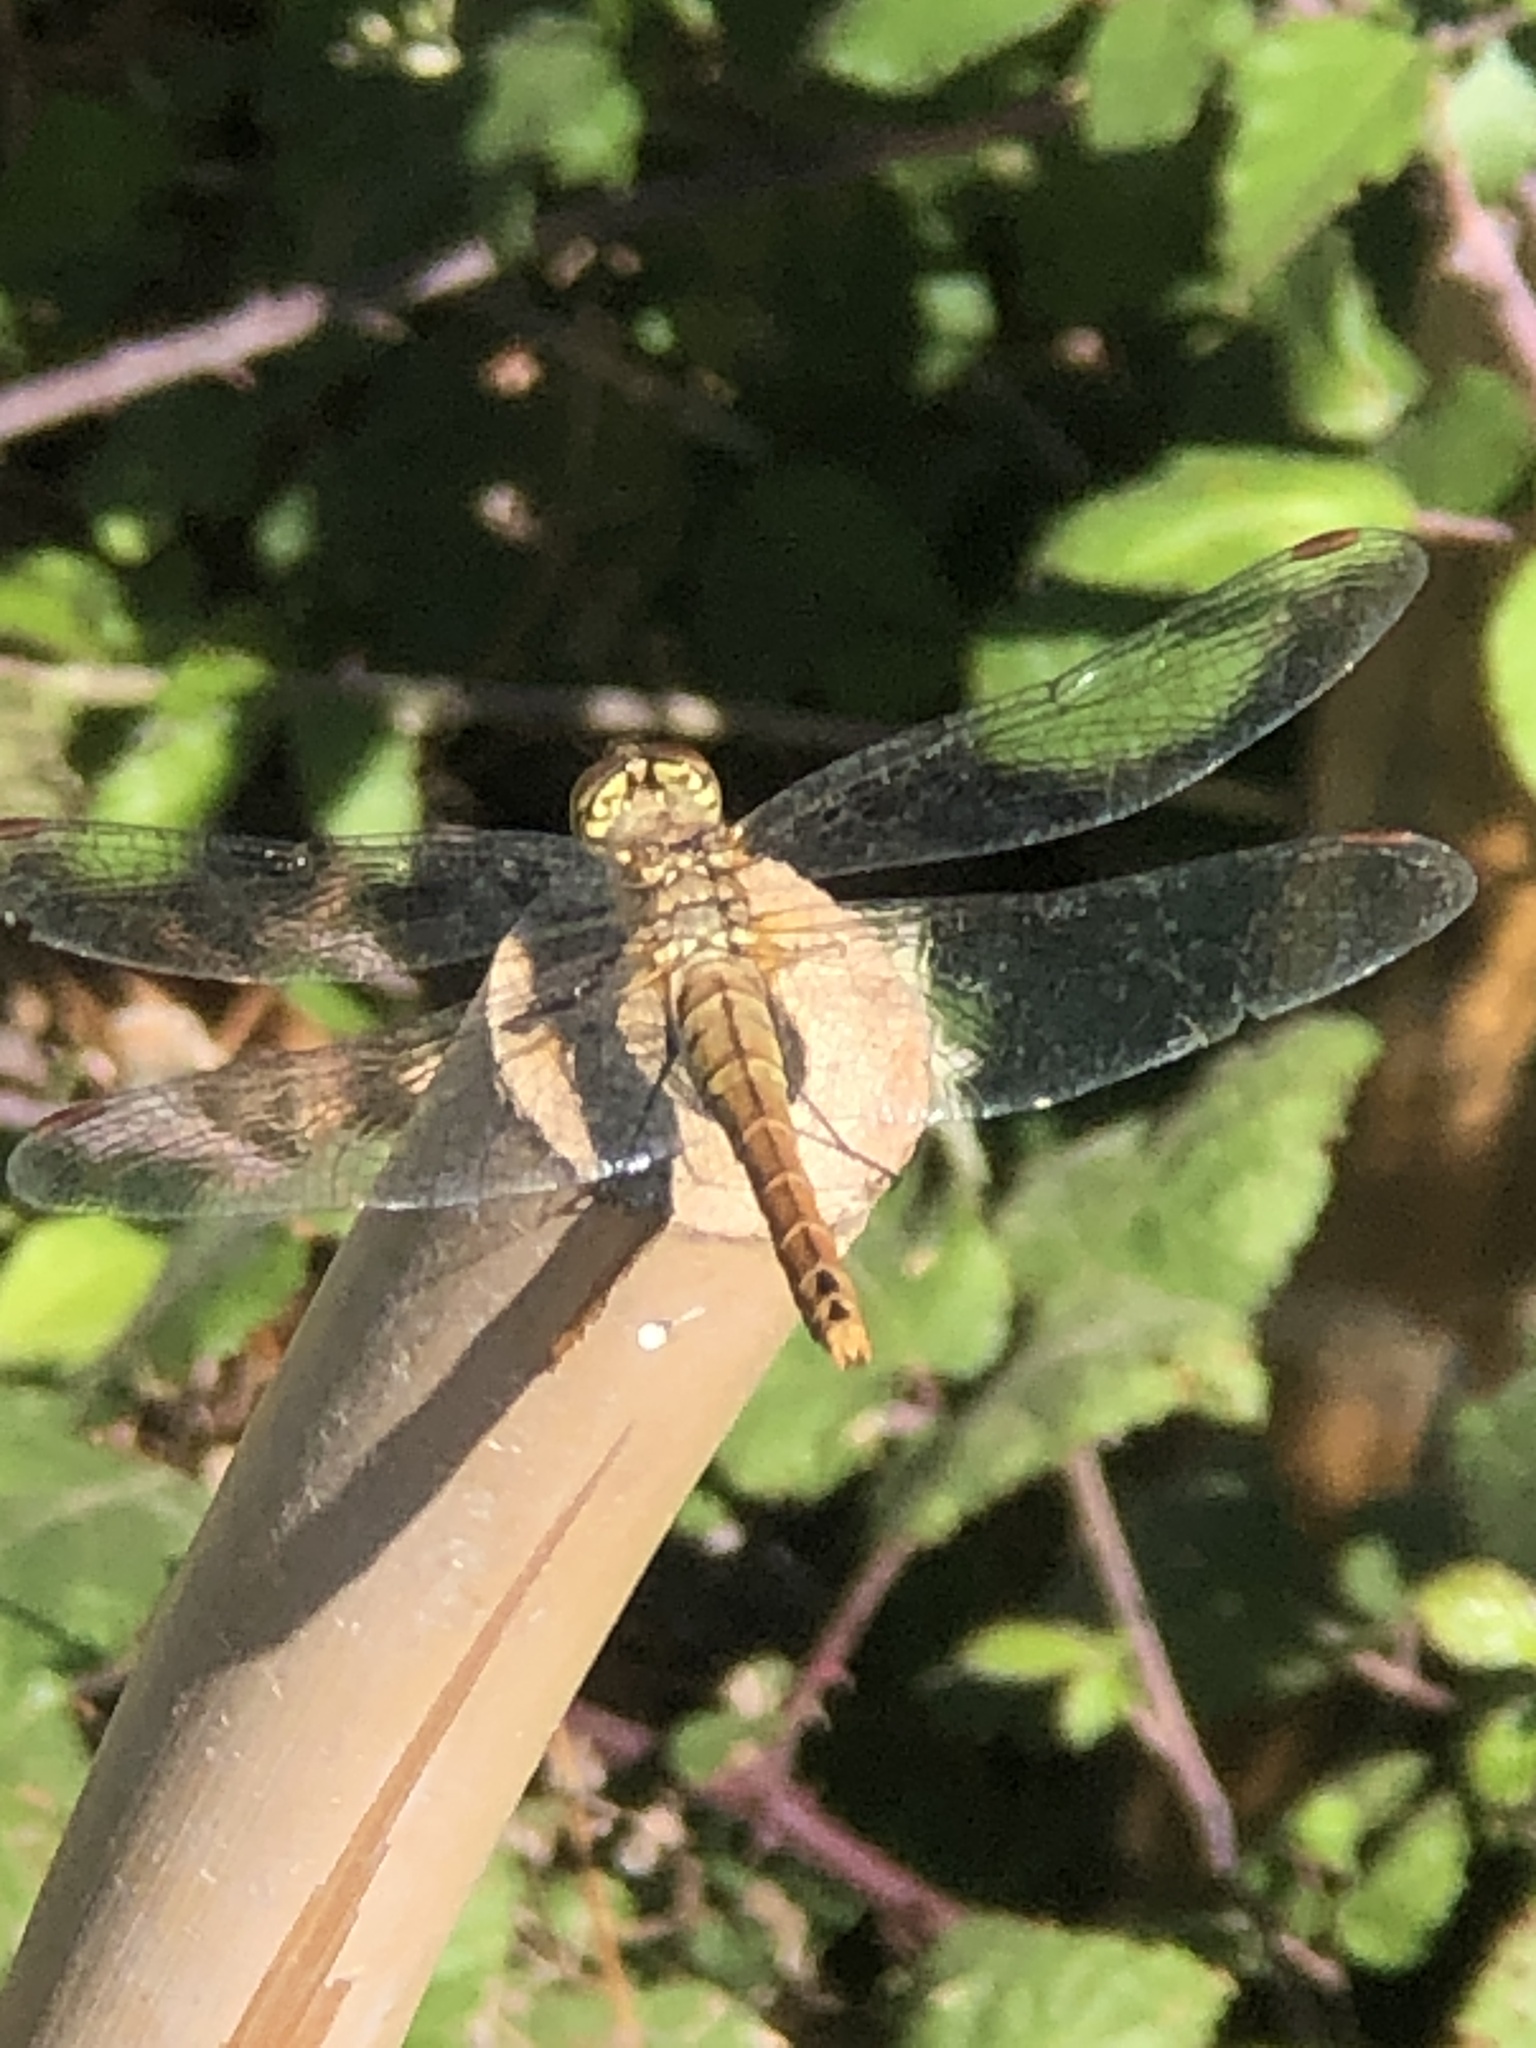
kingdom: Animalia
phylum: Arthropoda
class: Insecta
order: Odonata
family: Libellulidae
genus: Sympetrum
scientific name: Sympetrum sanguineum
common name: Ruddy darter
